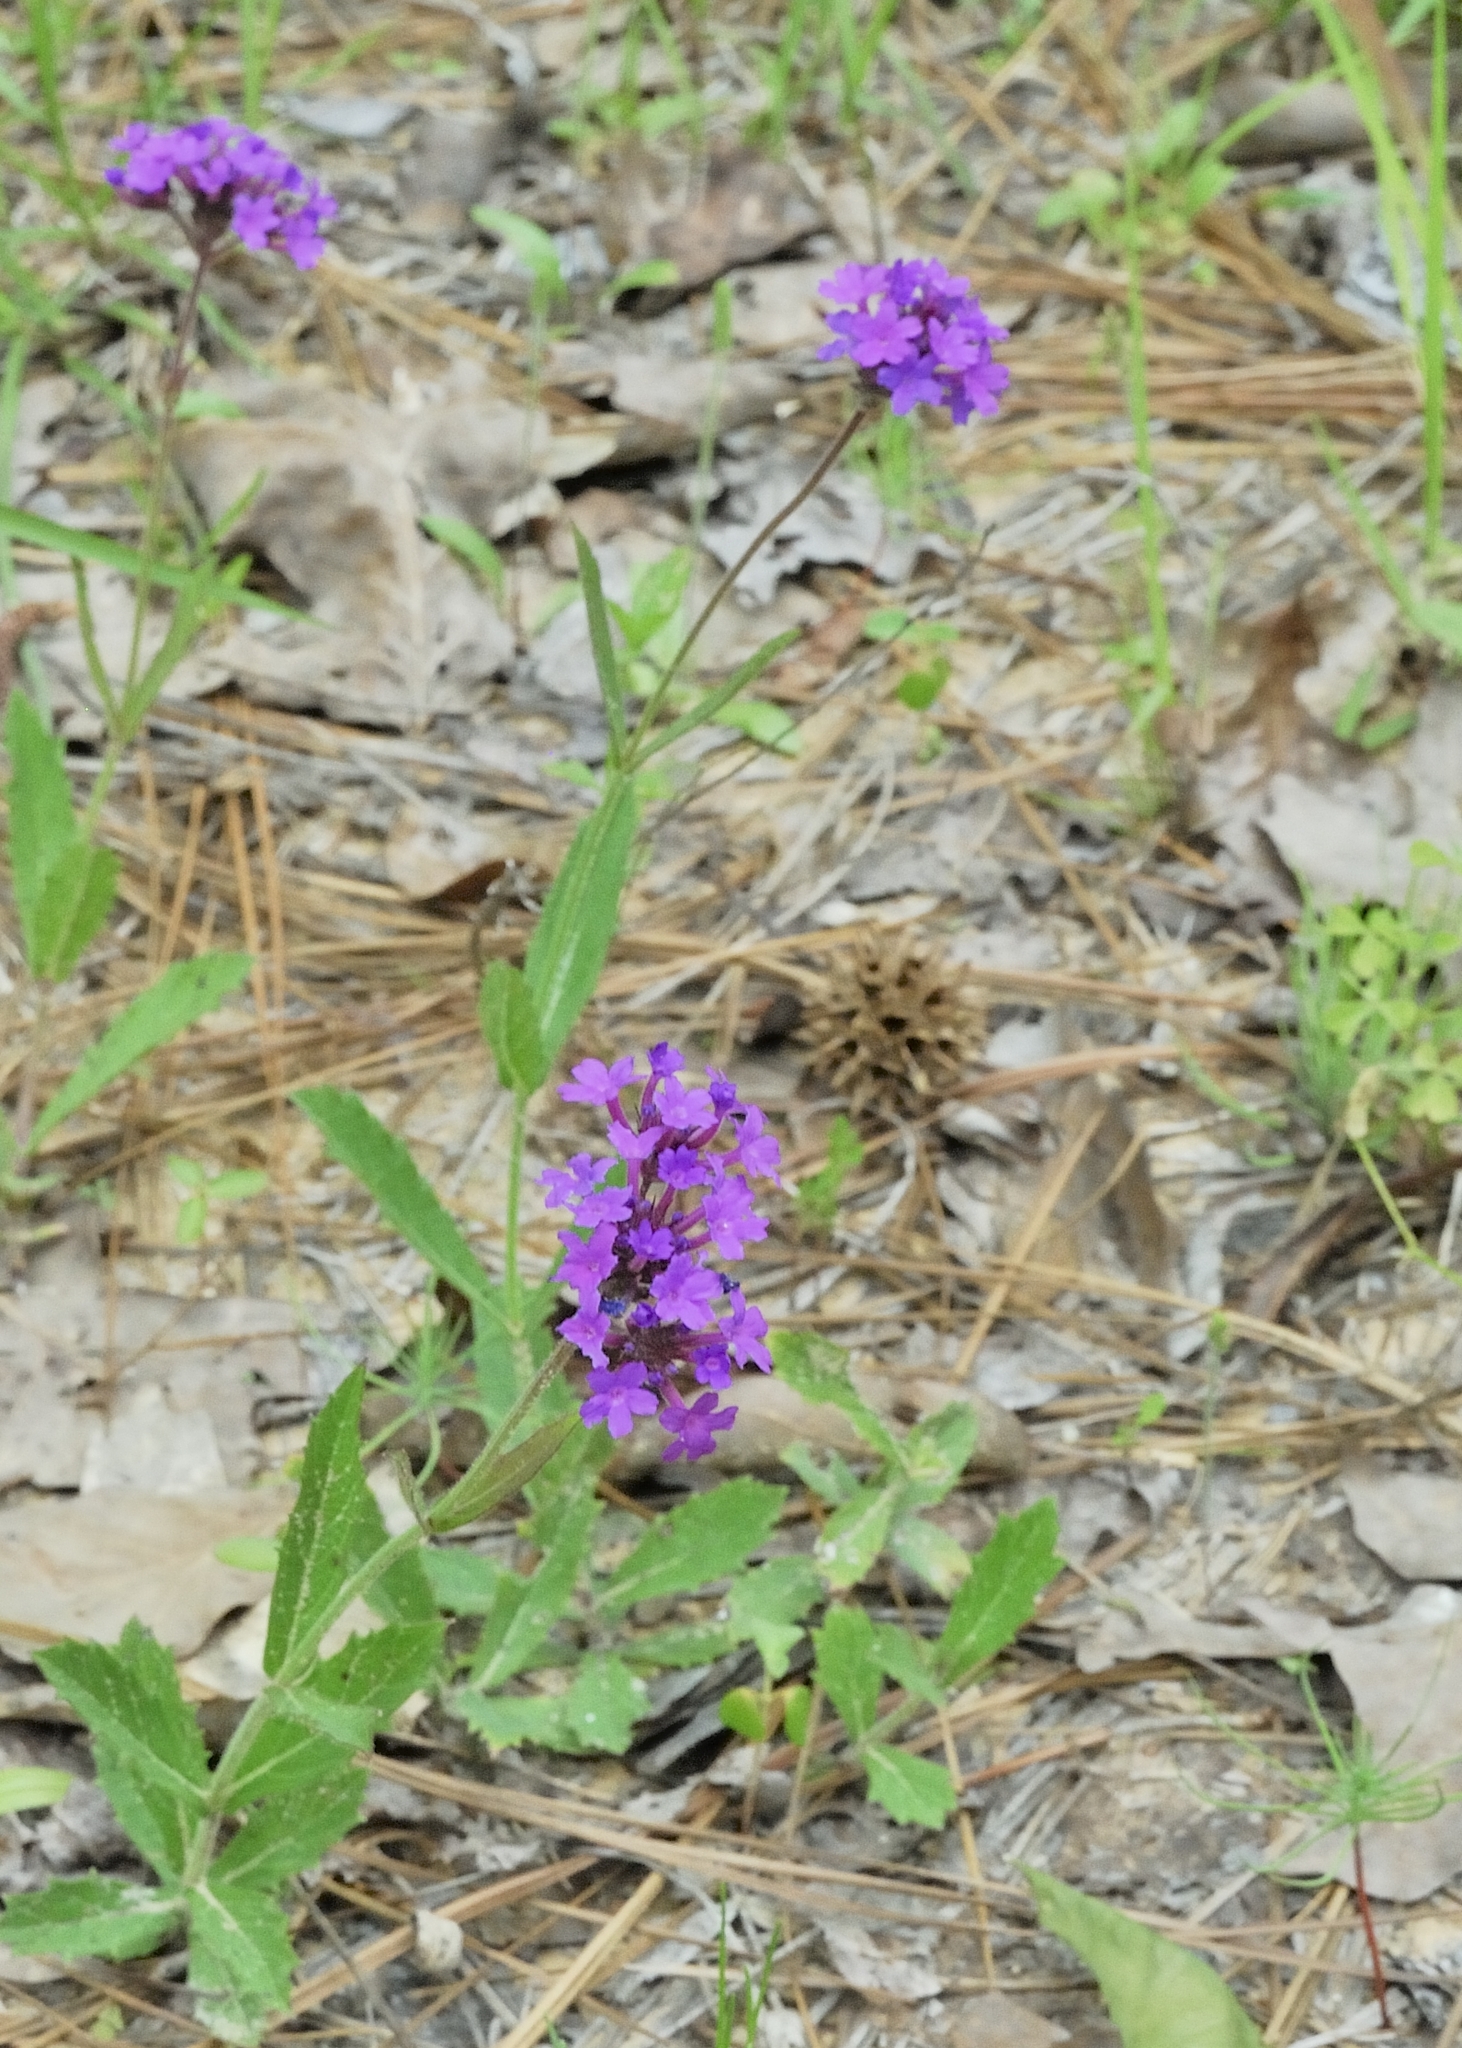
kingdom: Plantae
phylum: Tracheophyta
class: Magnoliopsida
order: Lamiales
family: Verbenaceae
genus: Verbena
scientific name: Verbena rigida
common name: Slender vervain
